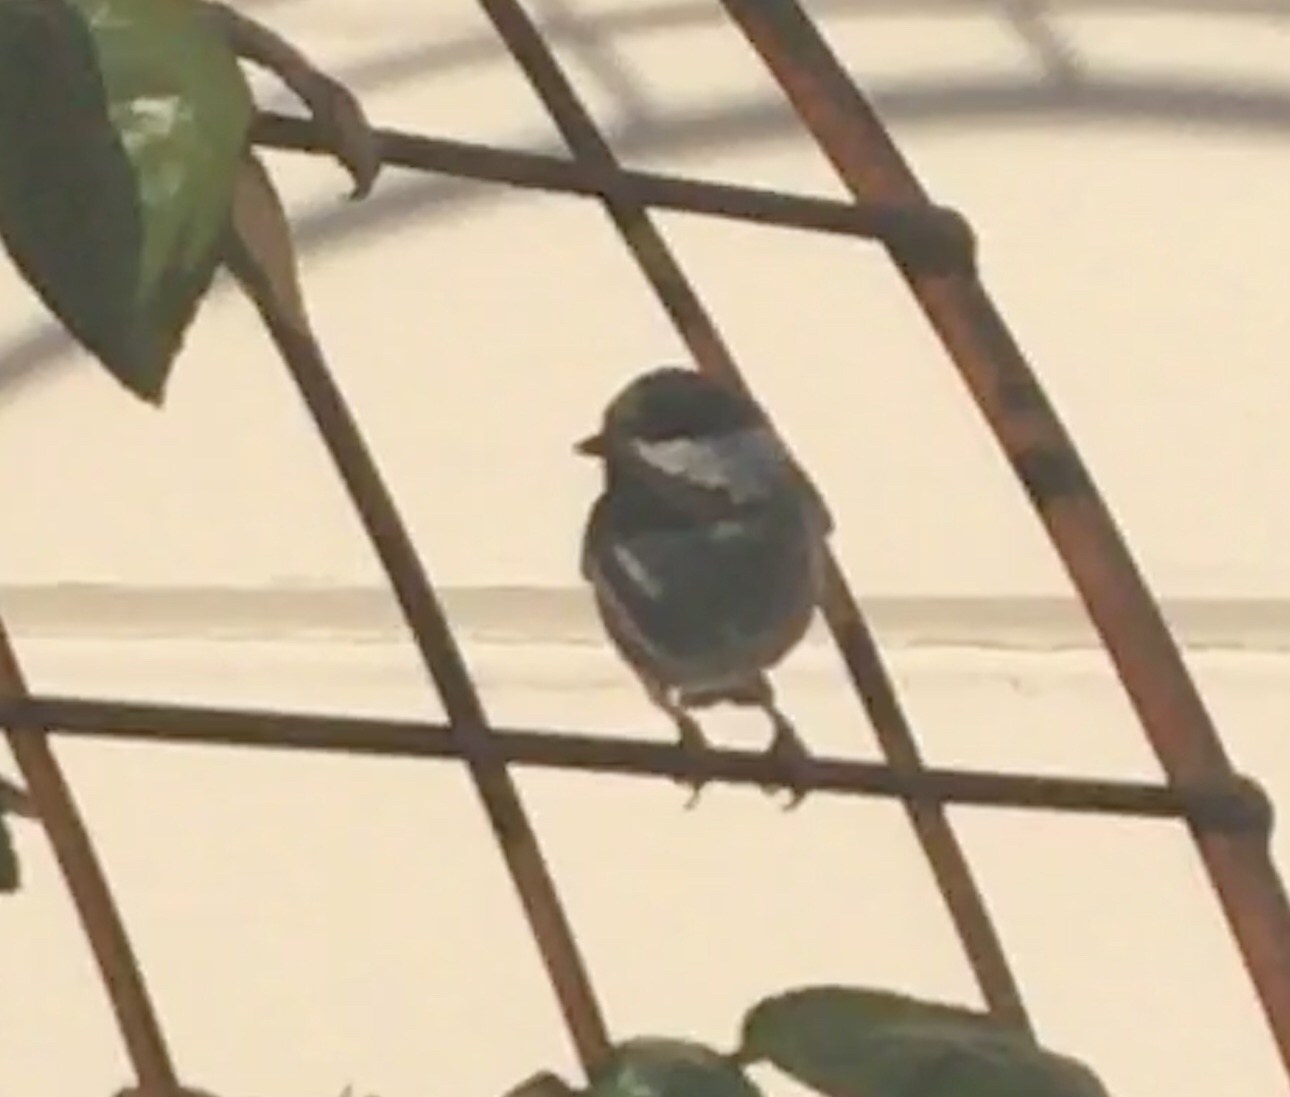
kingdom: Animalia
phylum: Chordata
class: Aves
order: Passeriformes
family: Paridae
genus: Poecile
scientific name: Poecile rufescens
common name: Chestnut-backed chickadee
